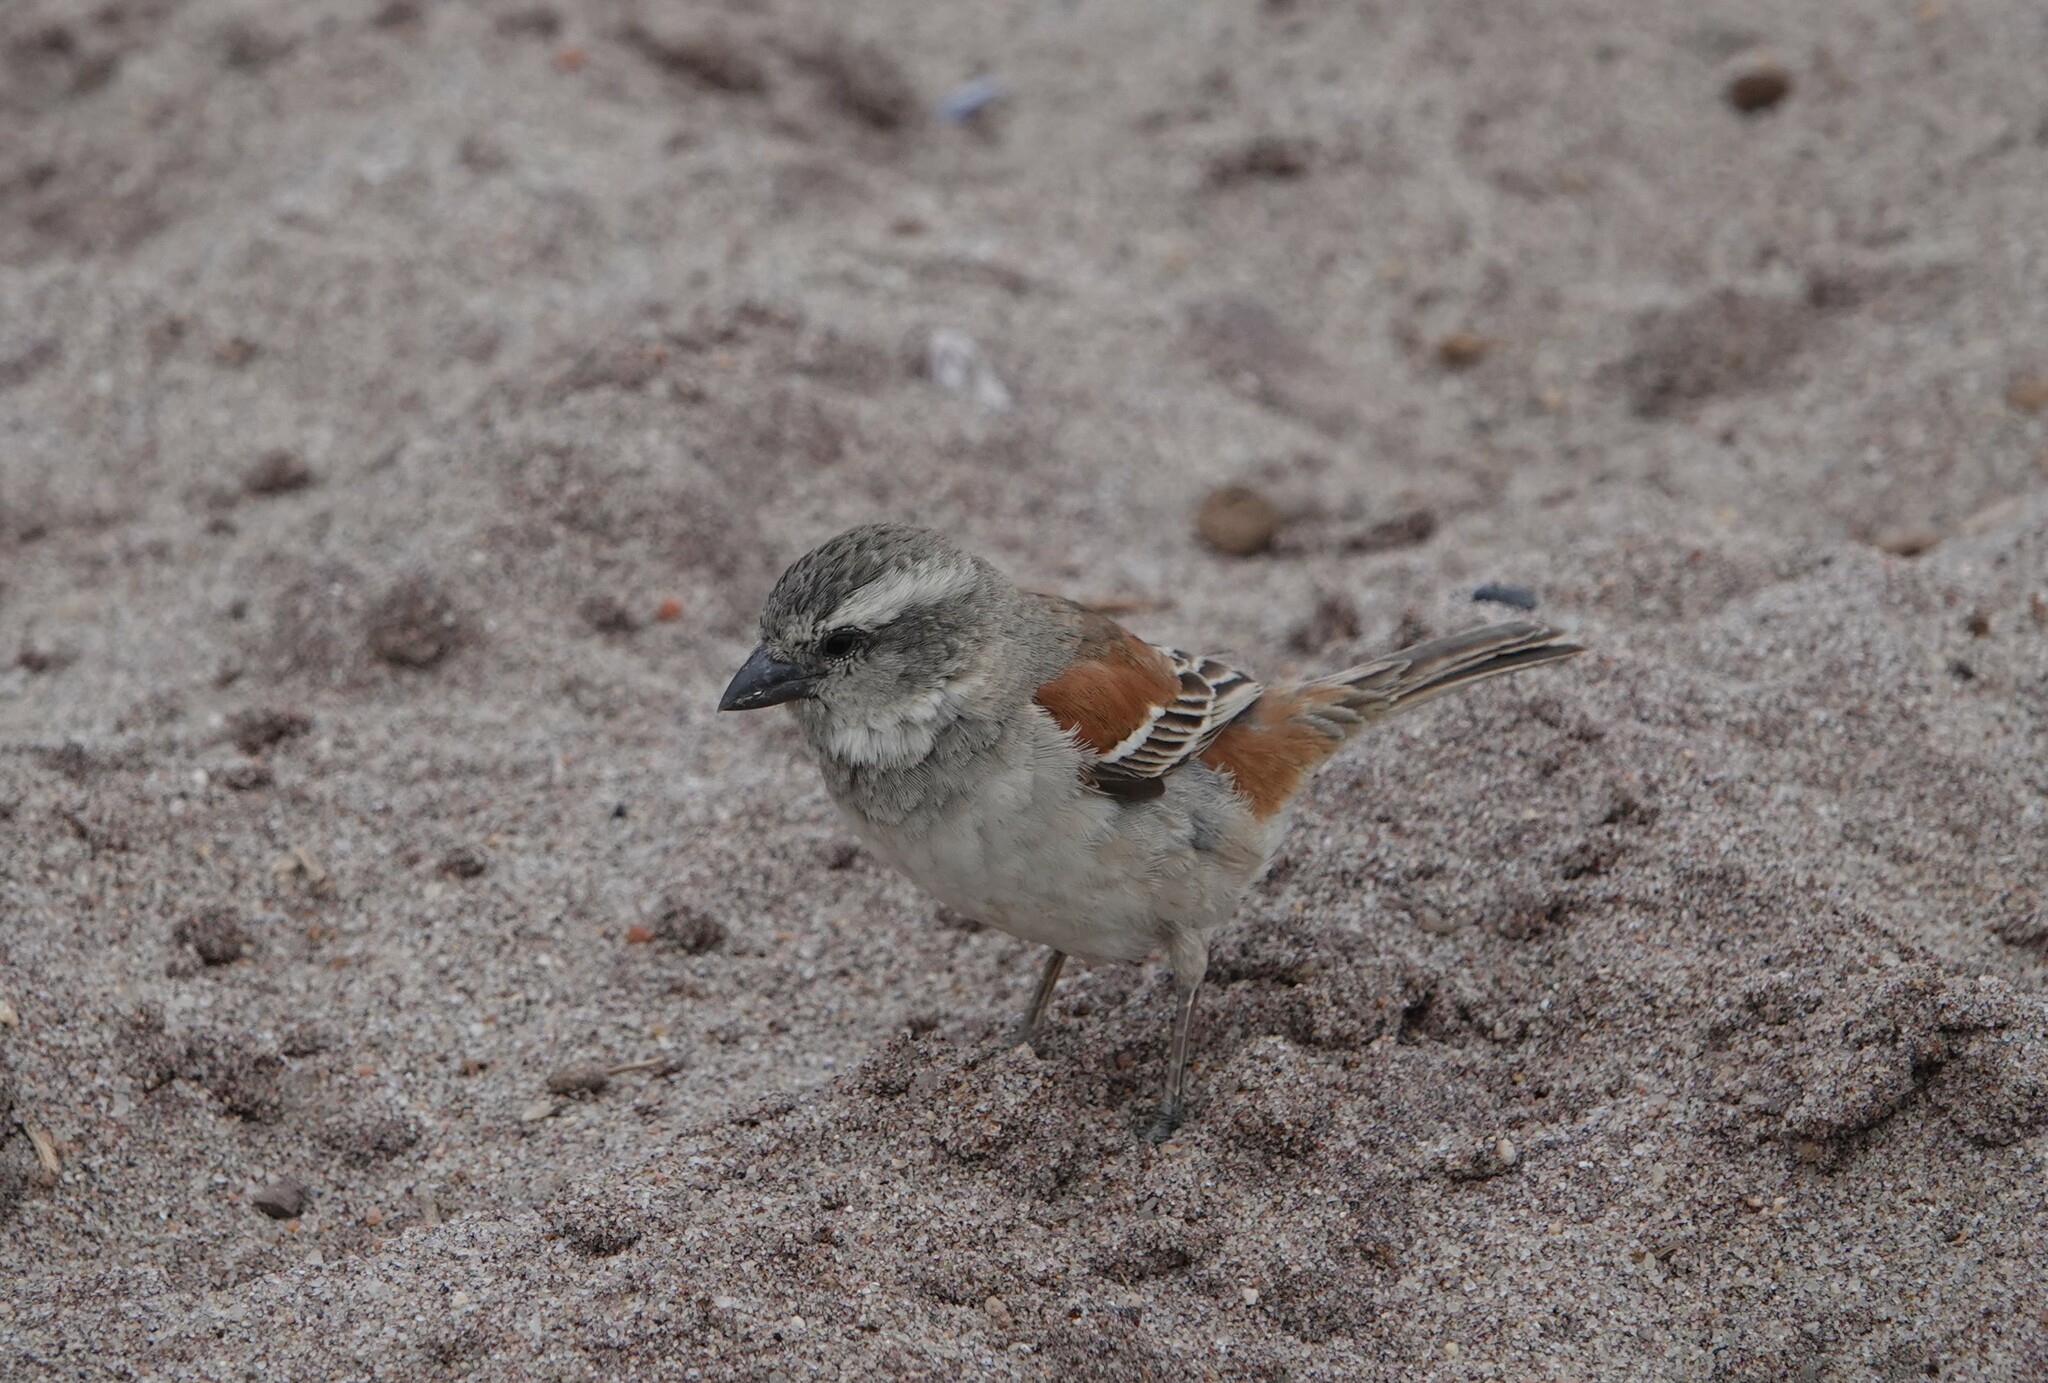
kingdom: Animalia
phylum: Chordata
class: Aves
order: Passeriformes
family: Passeridae
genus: Passer
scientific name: Passer melanurus
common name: Cape sparrow
